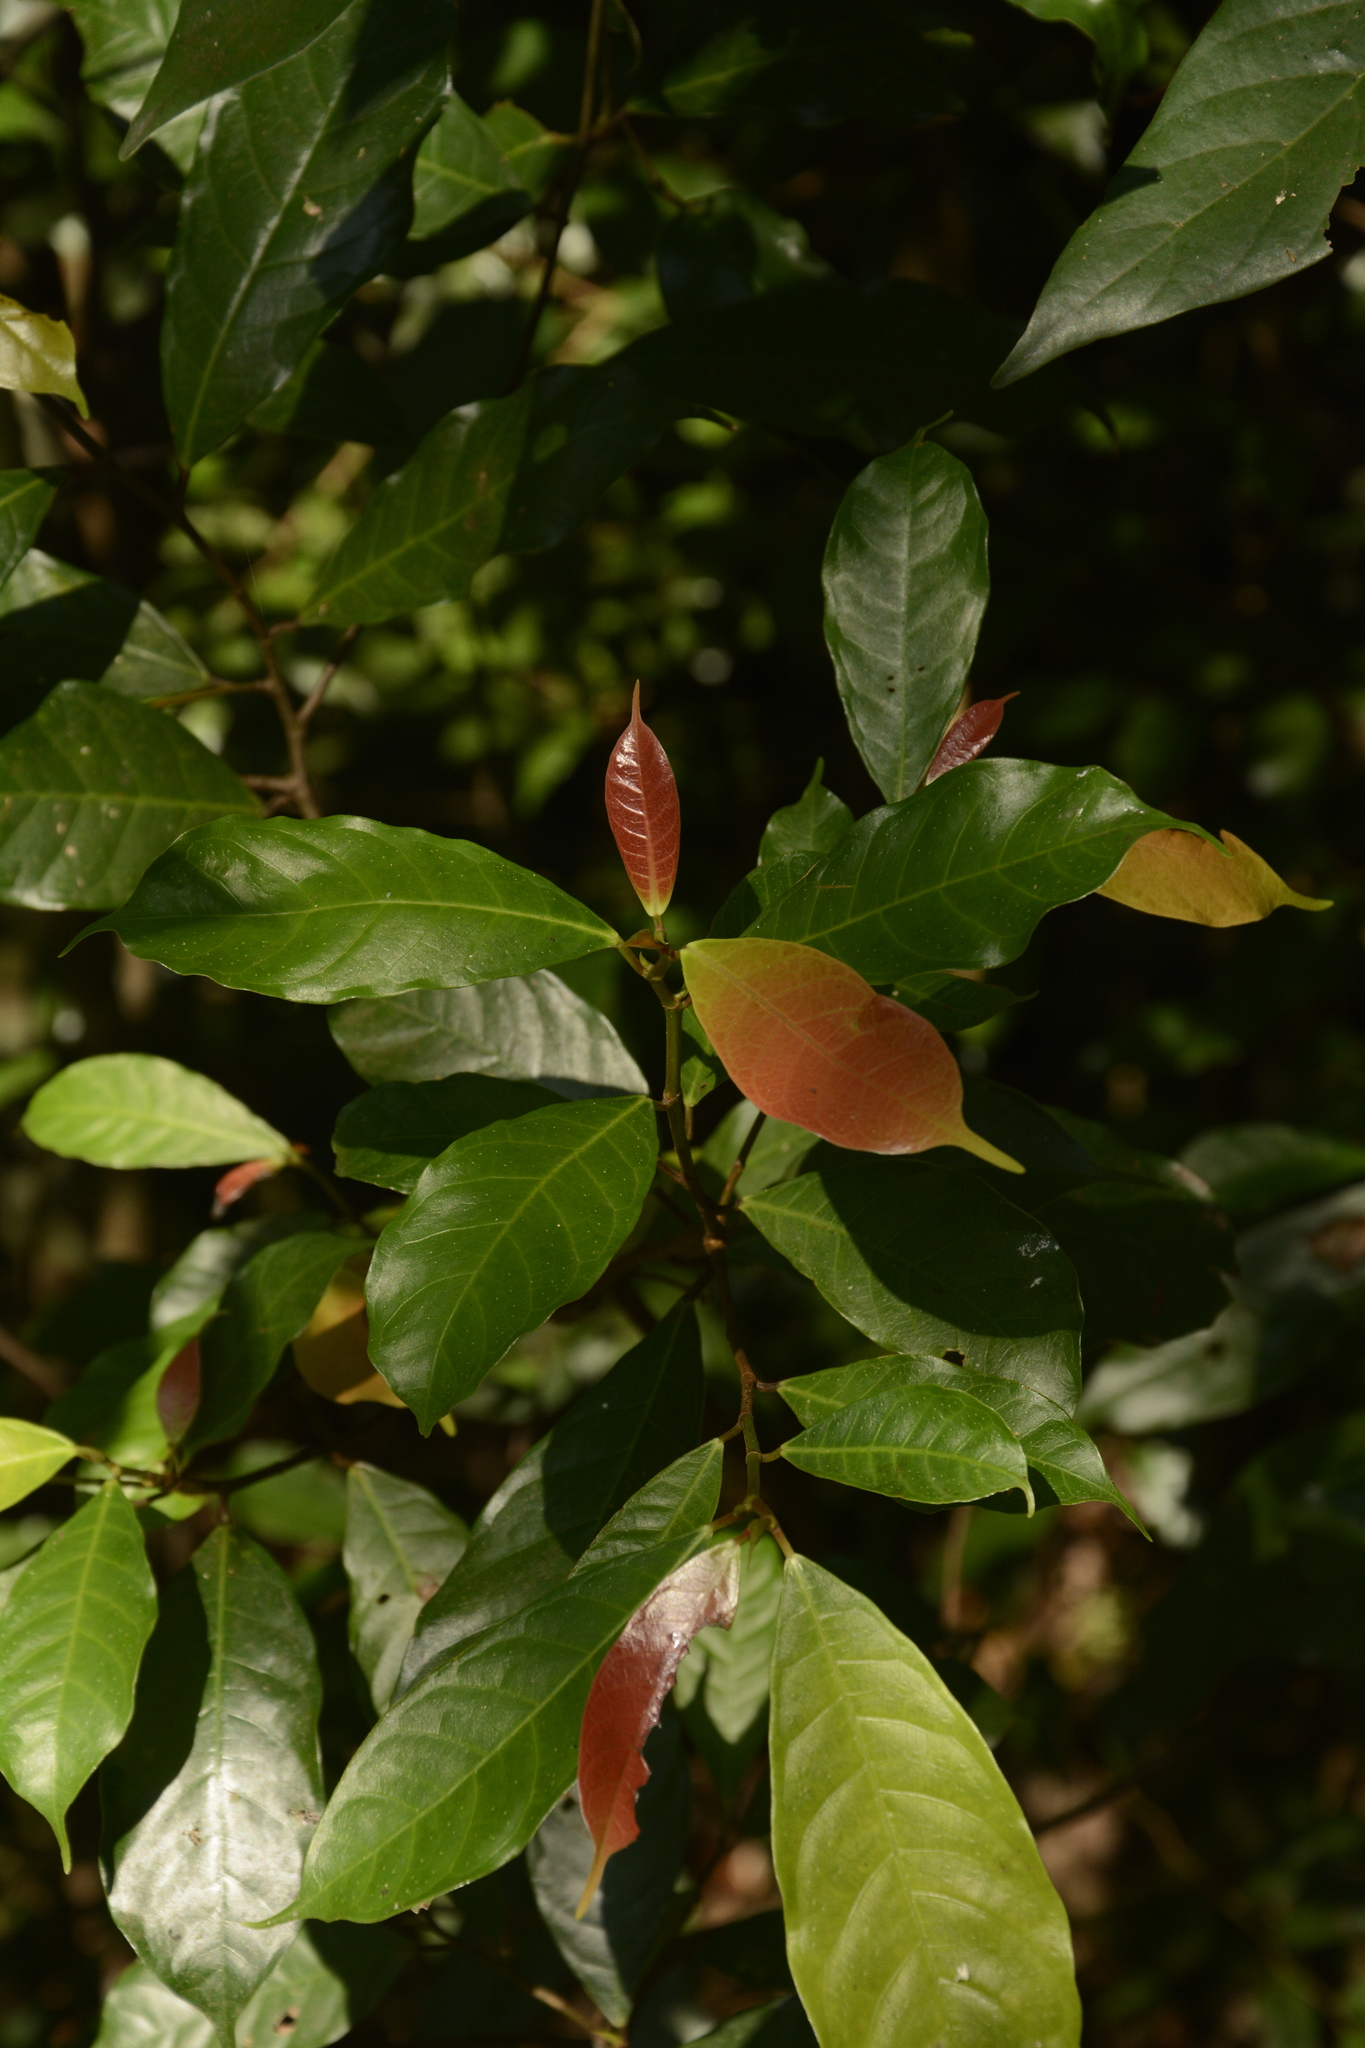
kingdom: Plantae
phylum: Tracheophyta
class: Magnoliopsida
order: Rosales
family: Moraceae
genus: Ficus
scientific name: Ficus nervosa
